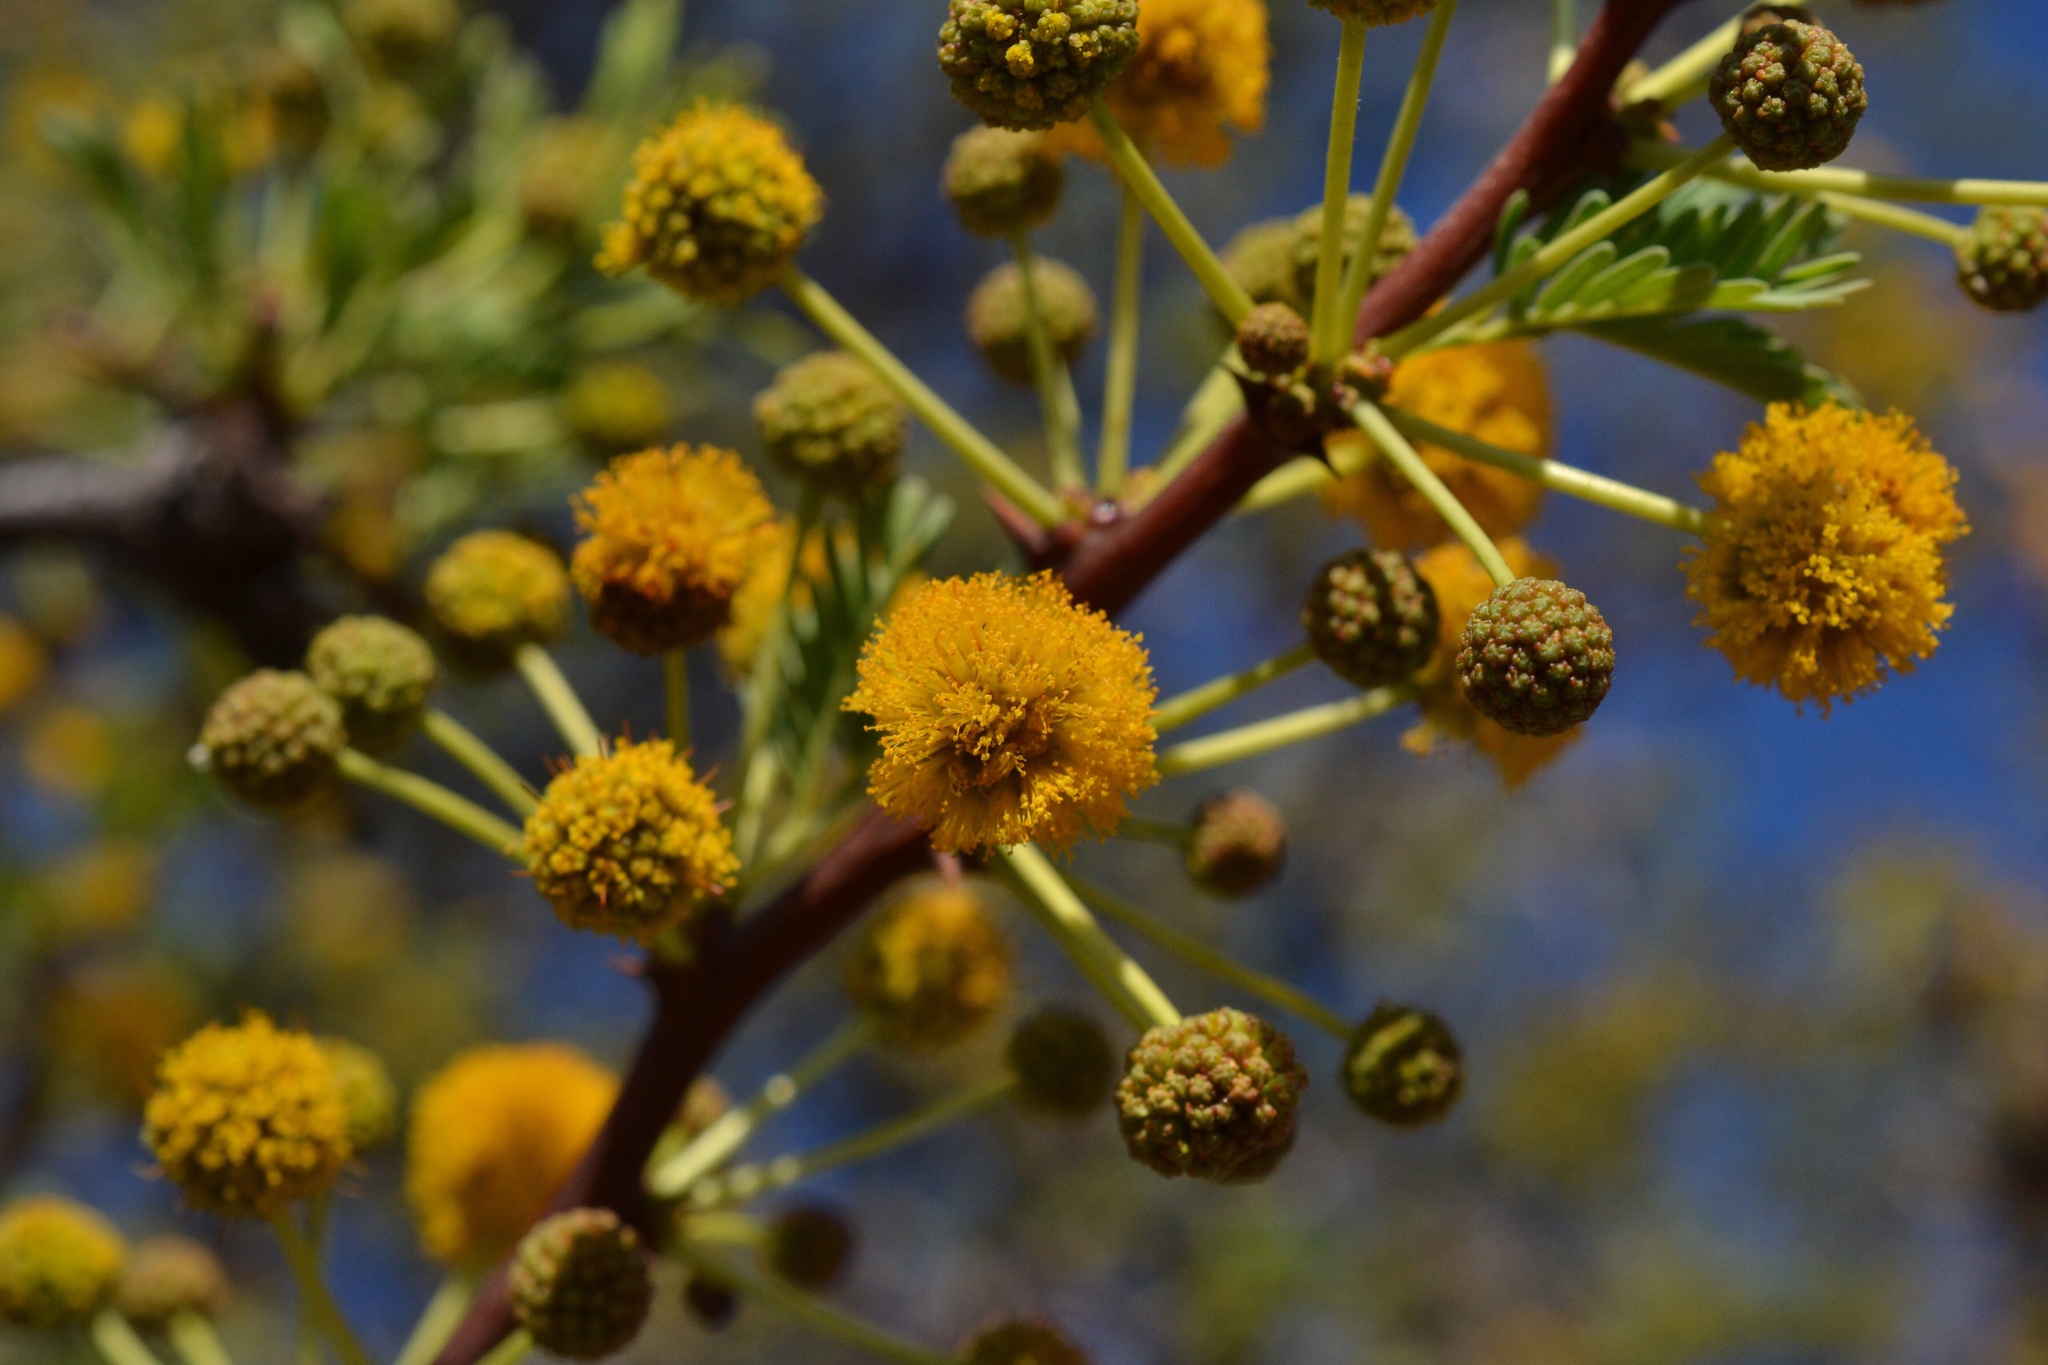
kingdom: Plantae
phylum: Tracheophyta
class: Magnoliopsida
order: Fabales
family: Fabaceae
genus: Vachellia
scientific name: Vachellia erioloba
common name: Camel thorn
